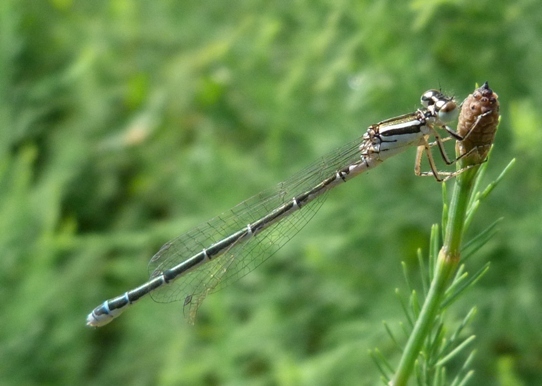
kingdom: Animalia
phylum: Arthropoda
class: Insecta
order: Odonata
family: Coenagrionidae
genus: Coenagrion
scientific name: Coenagrion puella
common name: Azure damselfly
